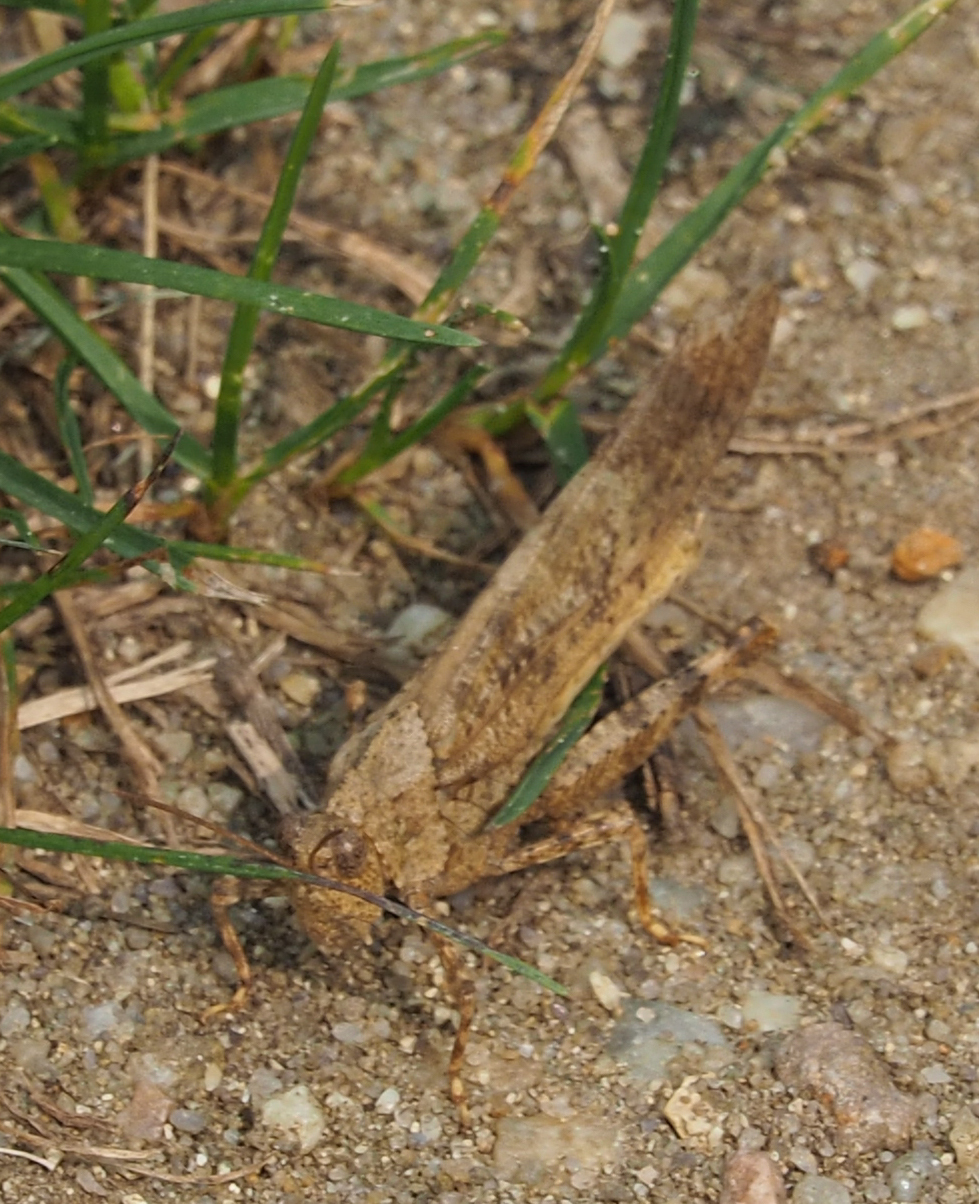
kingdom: Animalia
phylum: Arthropoda
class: Insecta
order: Orthoptera
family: Acrididae
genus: Dissosteira
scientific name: Dissosteira carolina
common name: Carolina grasshopper
